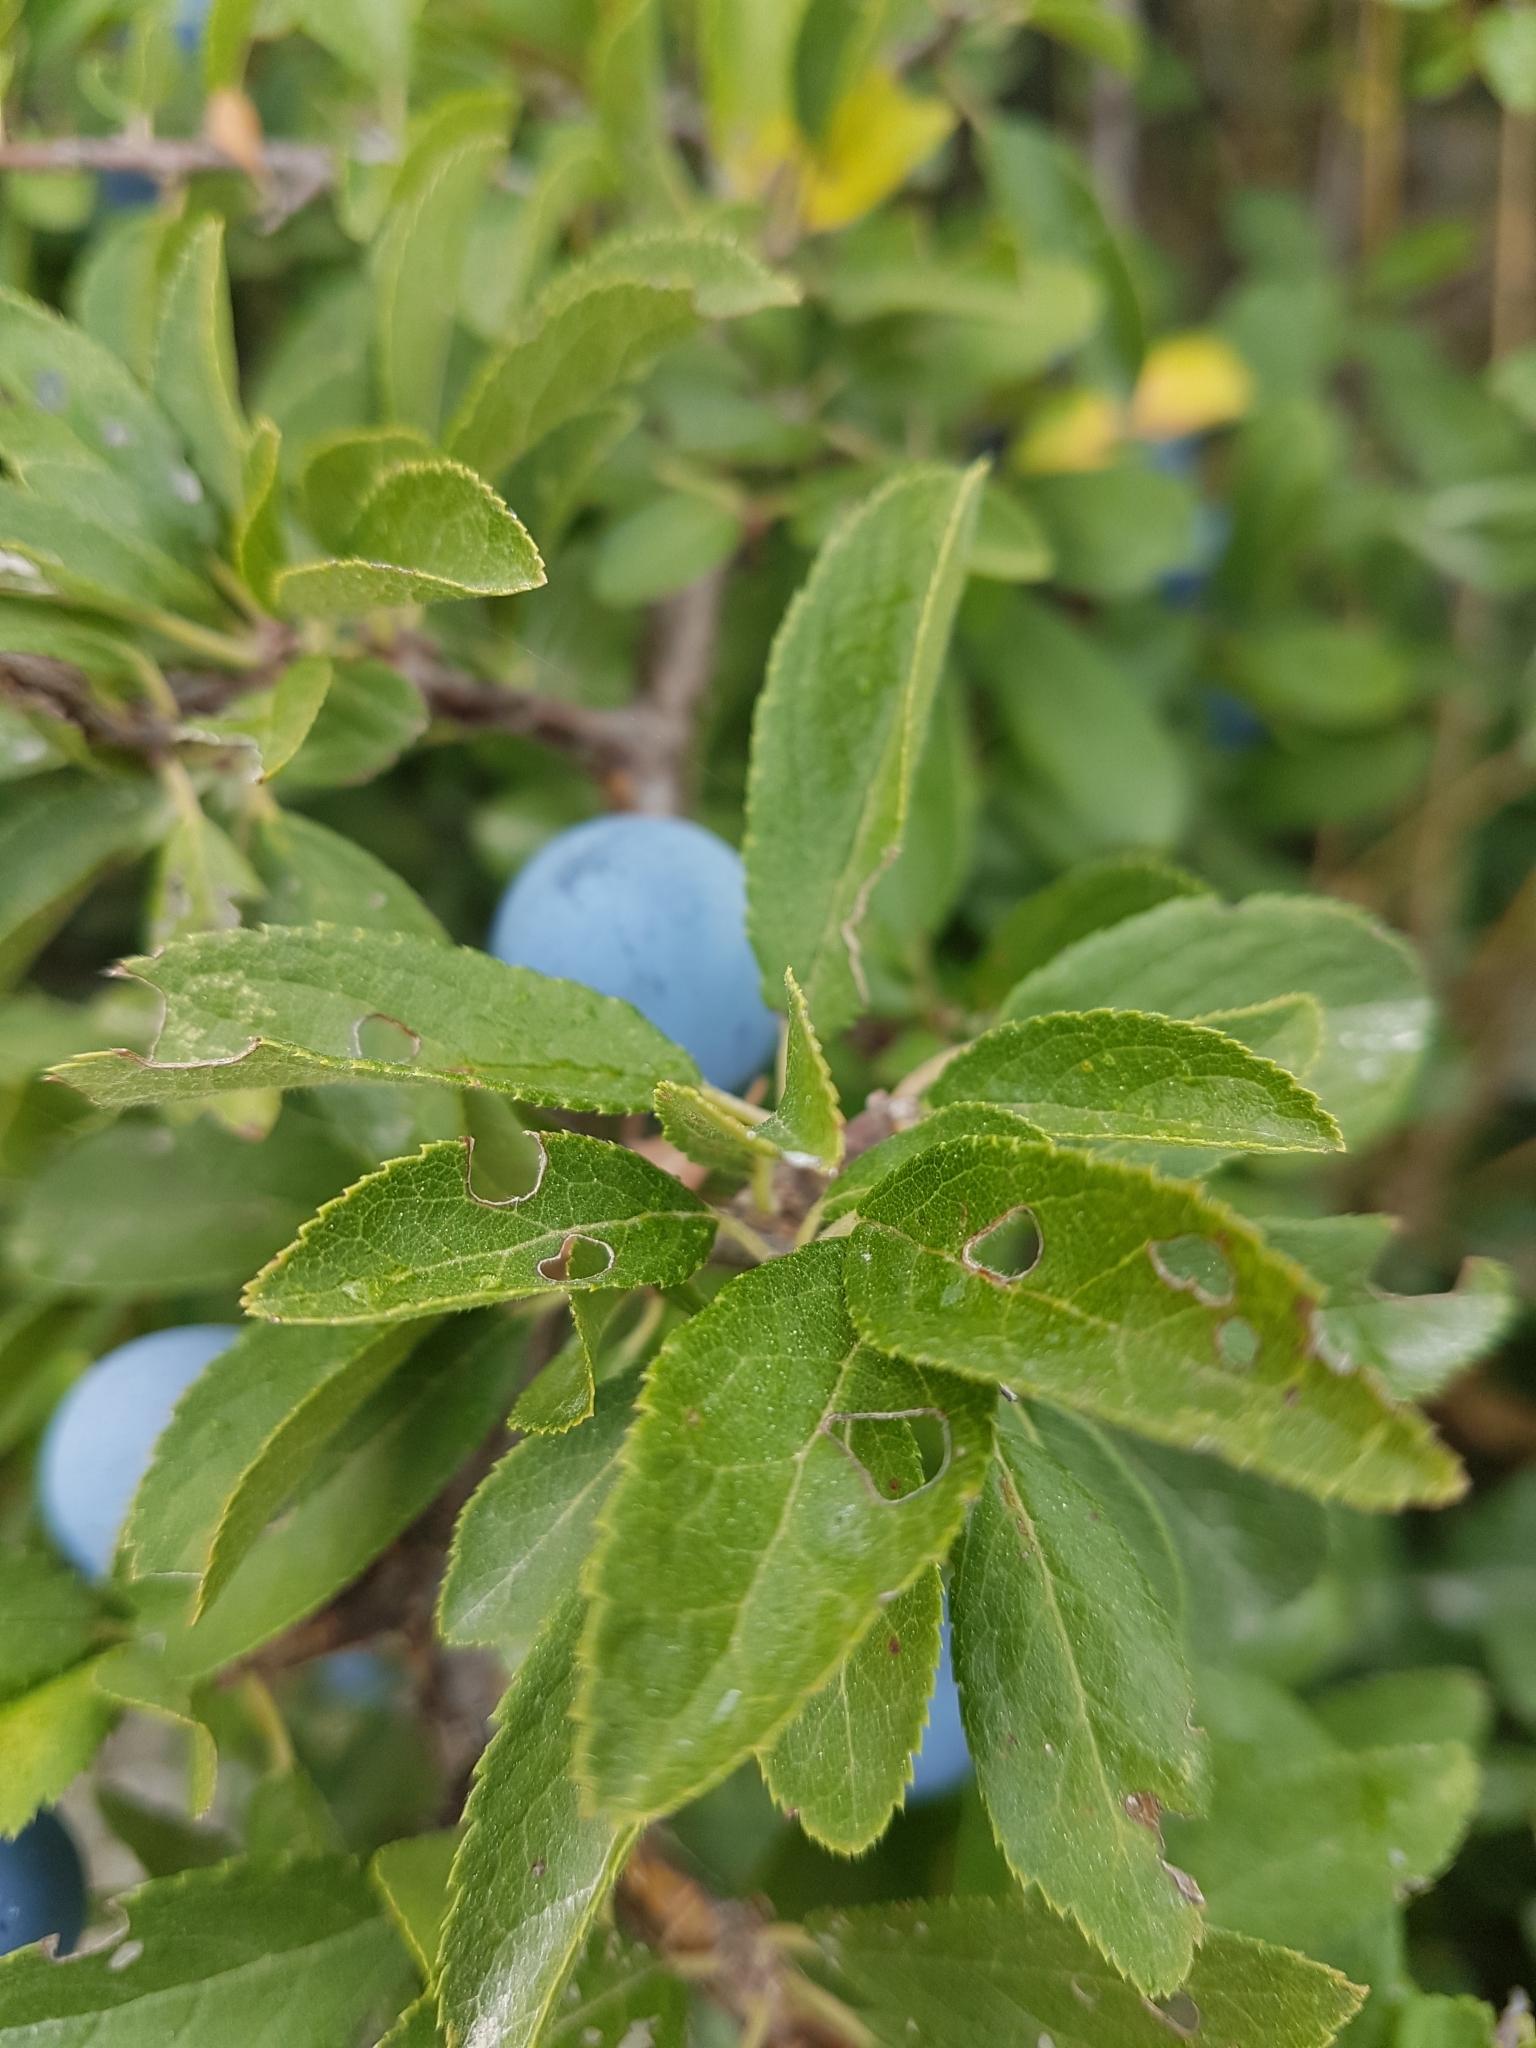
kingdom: Plantae
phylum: Tracheophyta
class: Magnoliopsida
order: Rosales
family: Rosaceae
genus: Prunus
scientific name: Prunus spinosa
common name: Blackthorn
